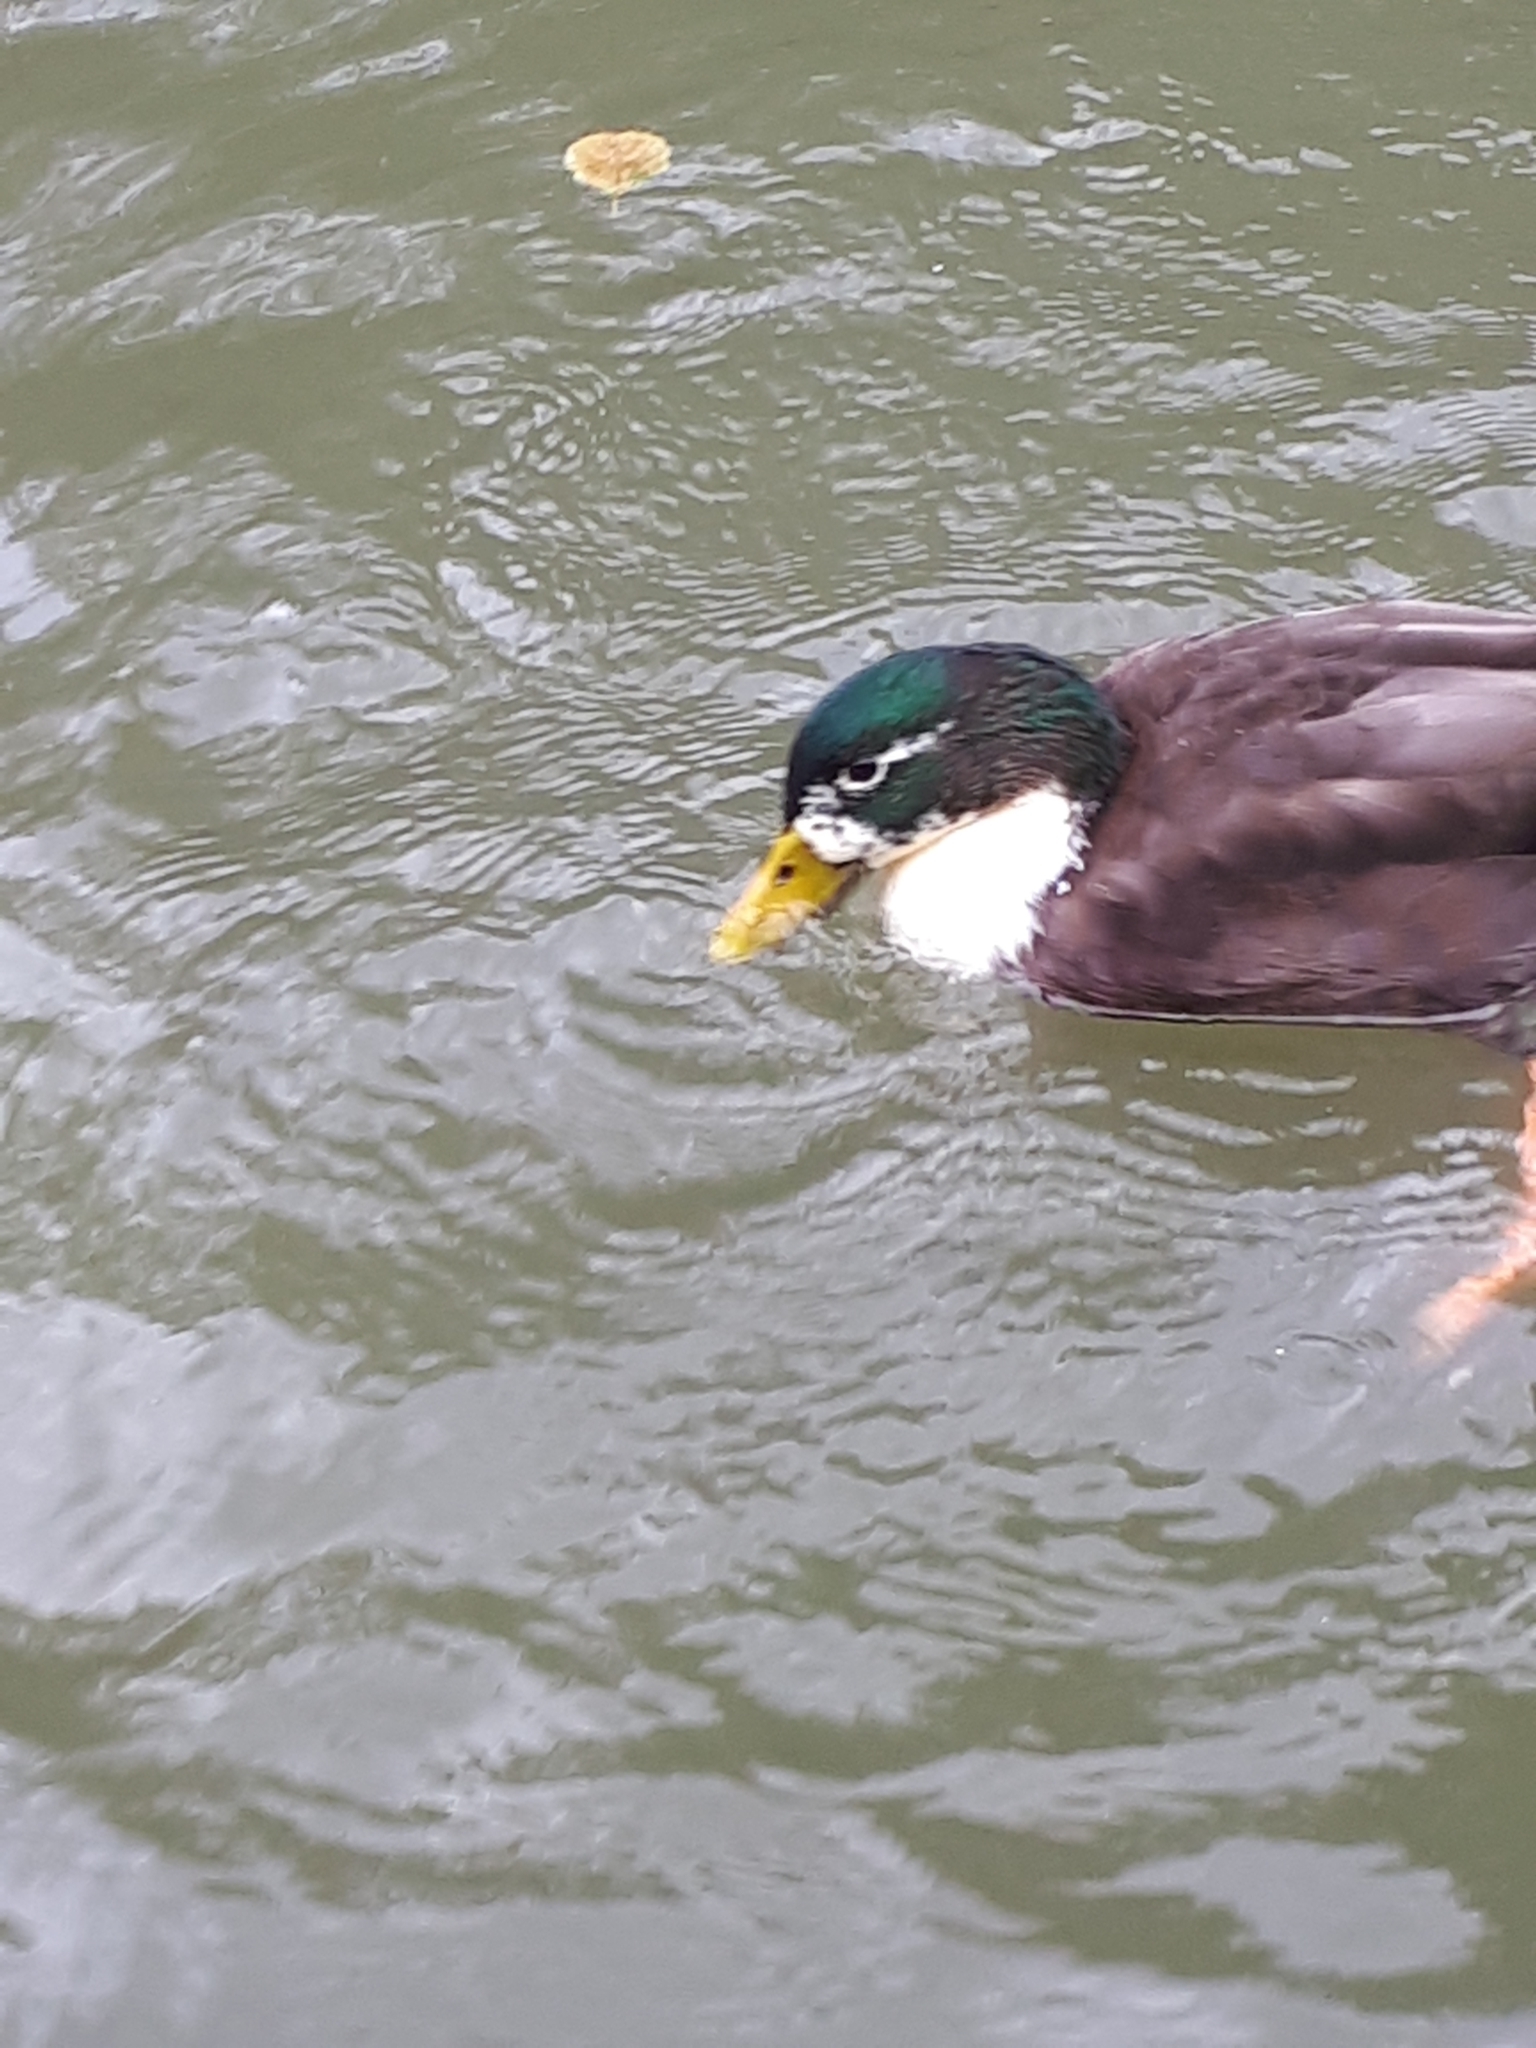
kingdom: Animalia
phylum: Chordata
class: Aves
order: Anseriformes
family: Anatidae
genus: Anas
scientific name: Anas platyrhynchos
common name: Mallard
